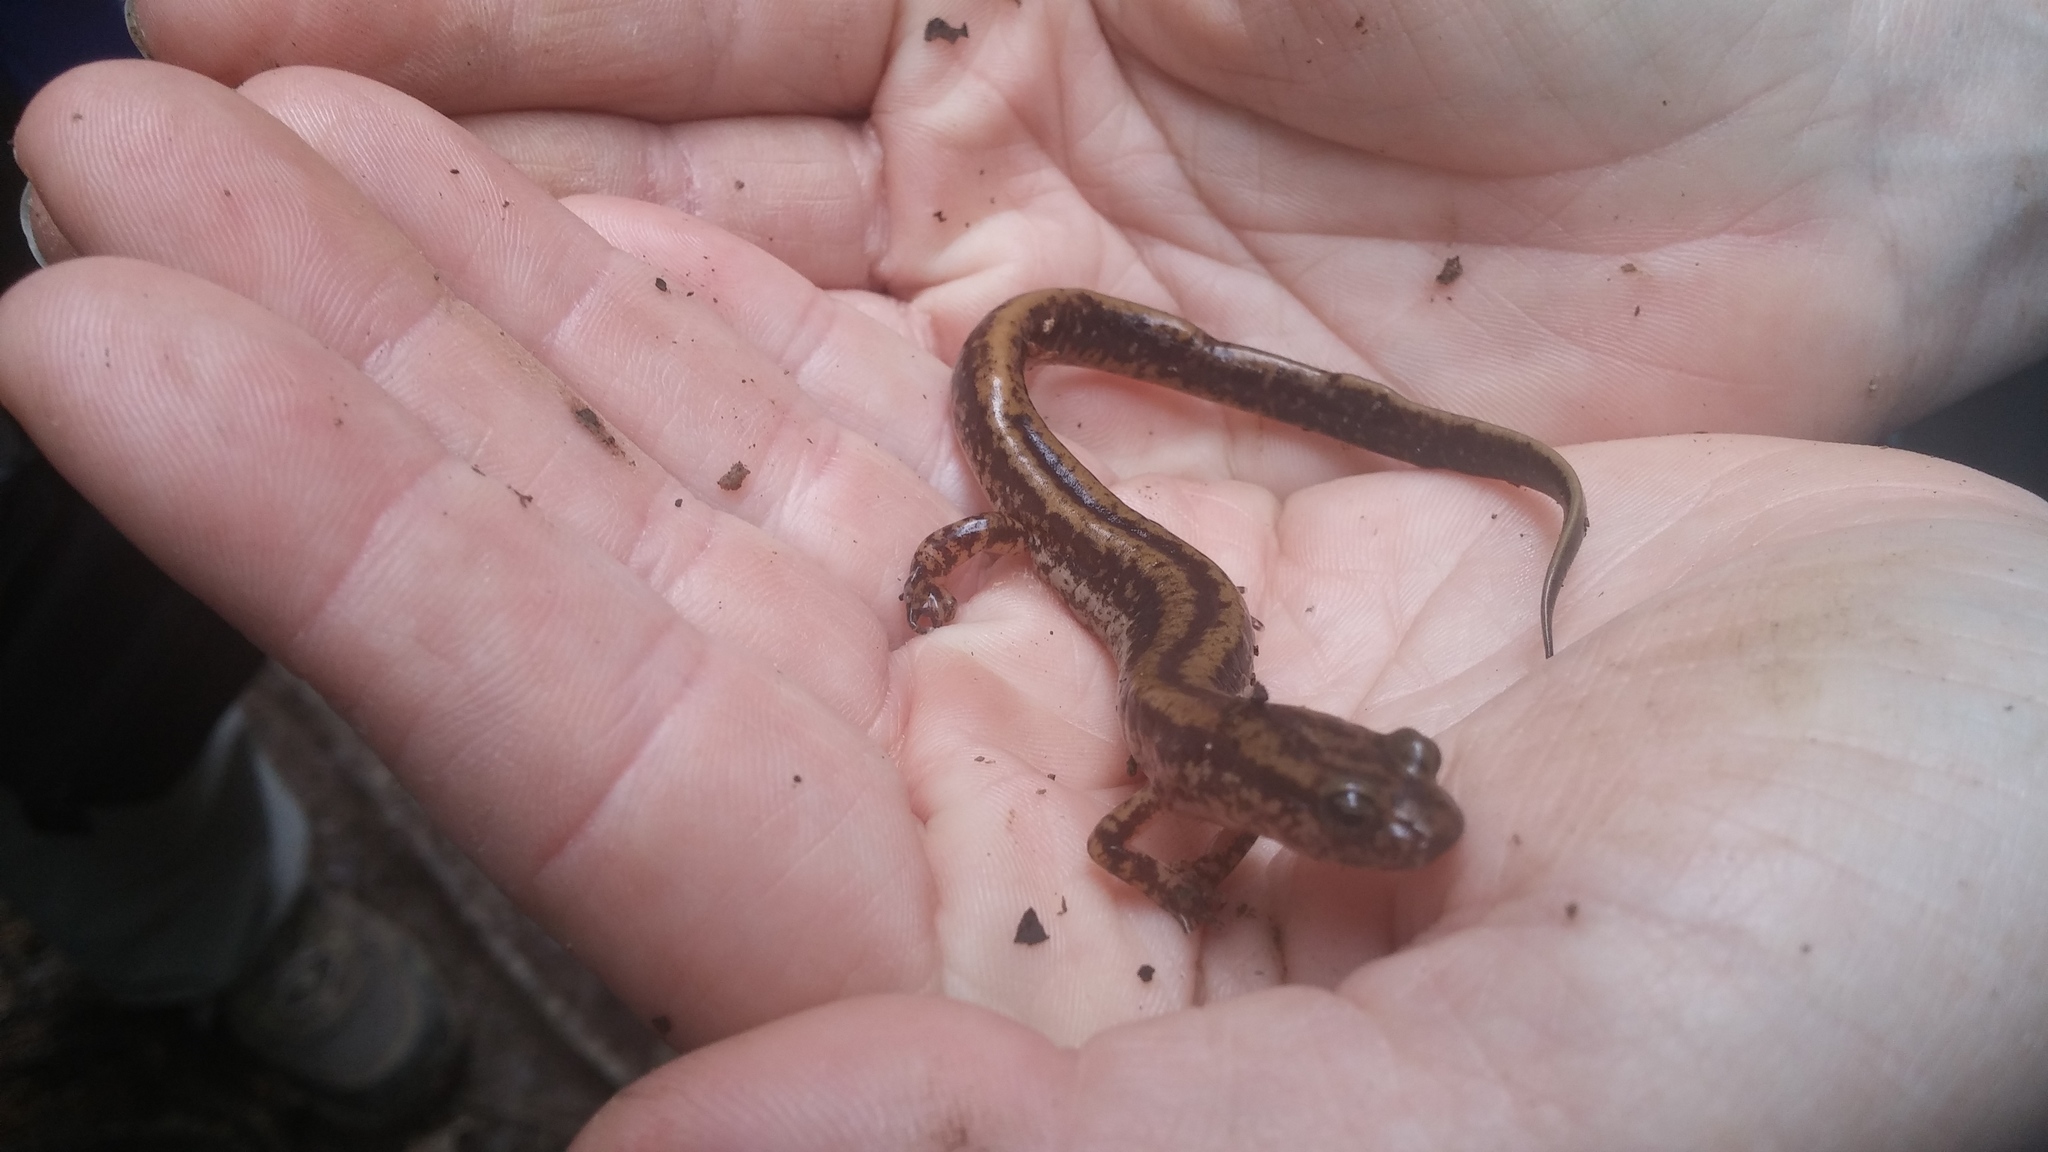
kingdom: Animalia
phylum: Chordata
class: Amphibia
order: Caudata
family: Plethodontidae
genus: Eurycea
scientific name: Eurycea guttolineata
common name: Three-lined salamander
